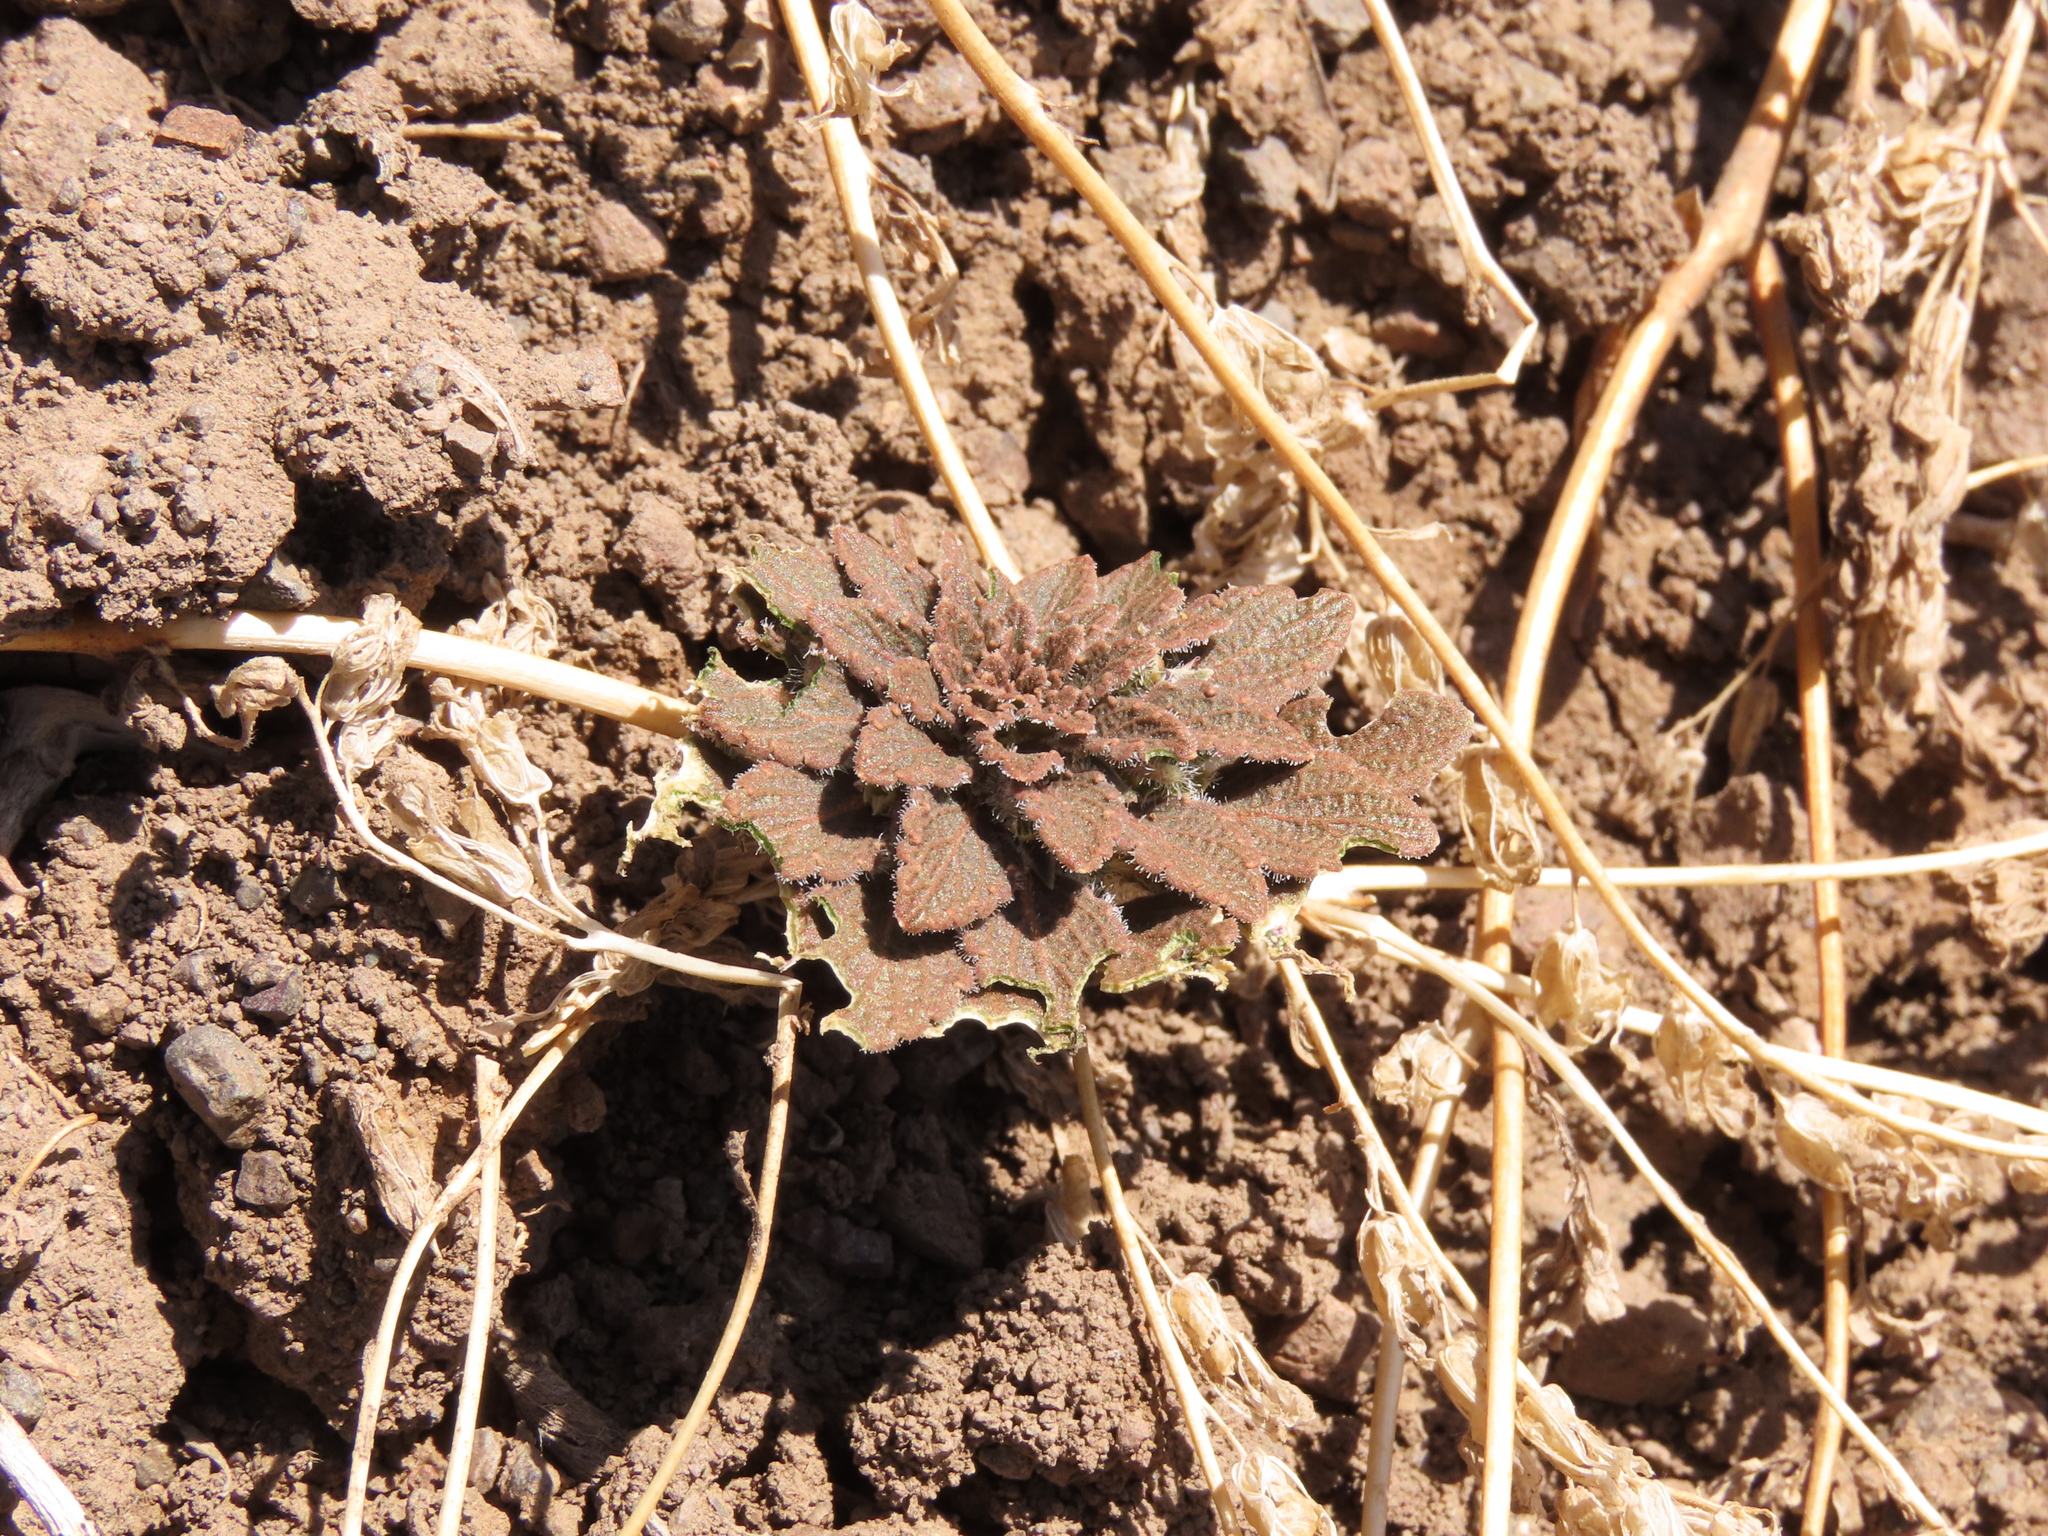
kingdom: Plantae
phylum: Tracheophyta
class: Magnoliopsida
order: Malpighiales
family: Violaceae
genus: Viola
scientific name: Viola subandina
